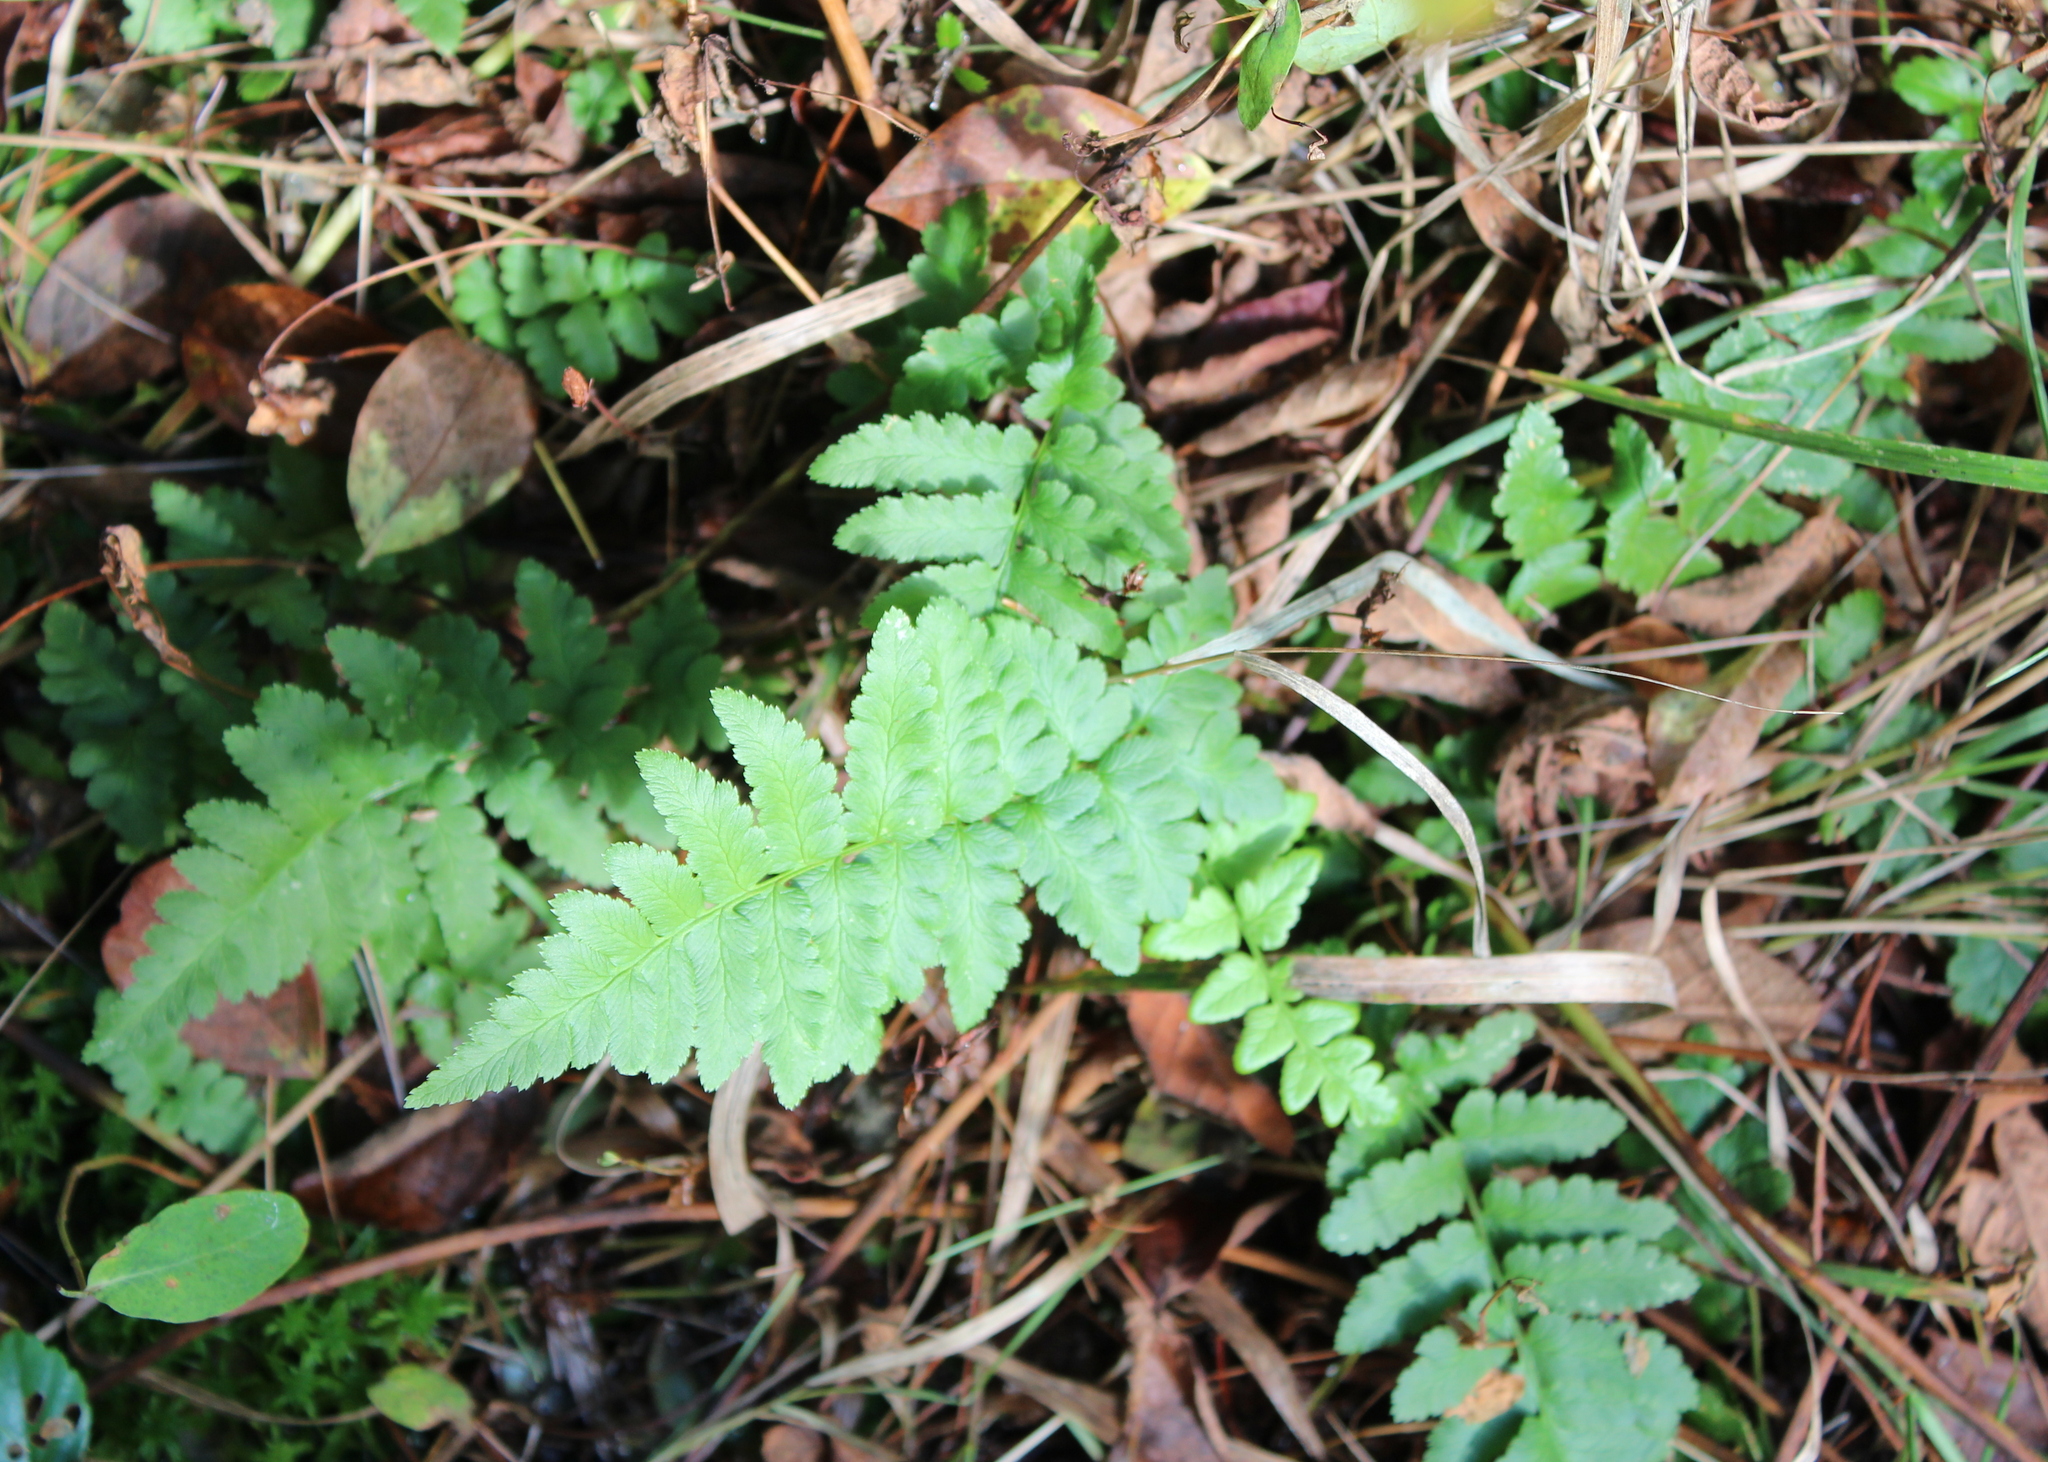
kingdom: Plantae
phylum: Tracheophyta
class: Polypodiopsida
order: Polypodiales
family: Dryopteridaceae
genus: Dryopteris
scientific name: Dryopteris cristata
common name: Crested wood fern
